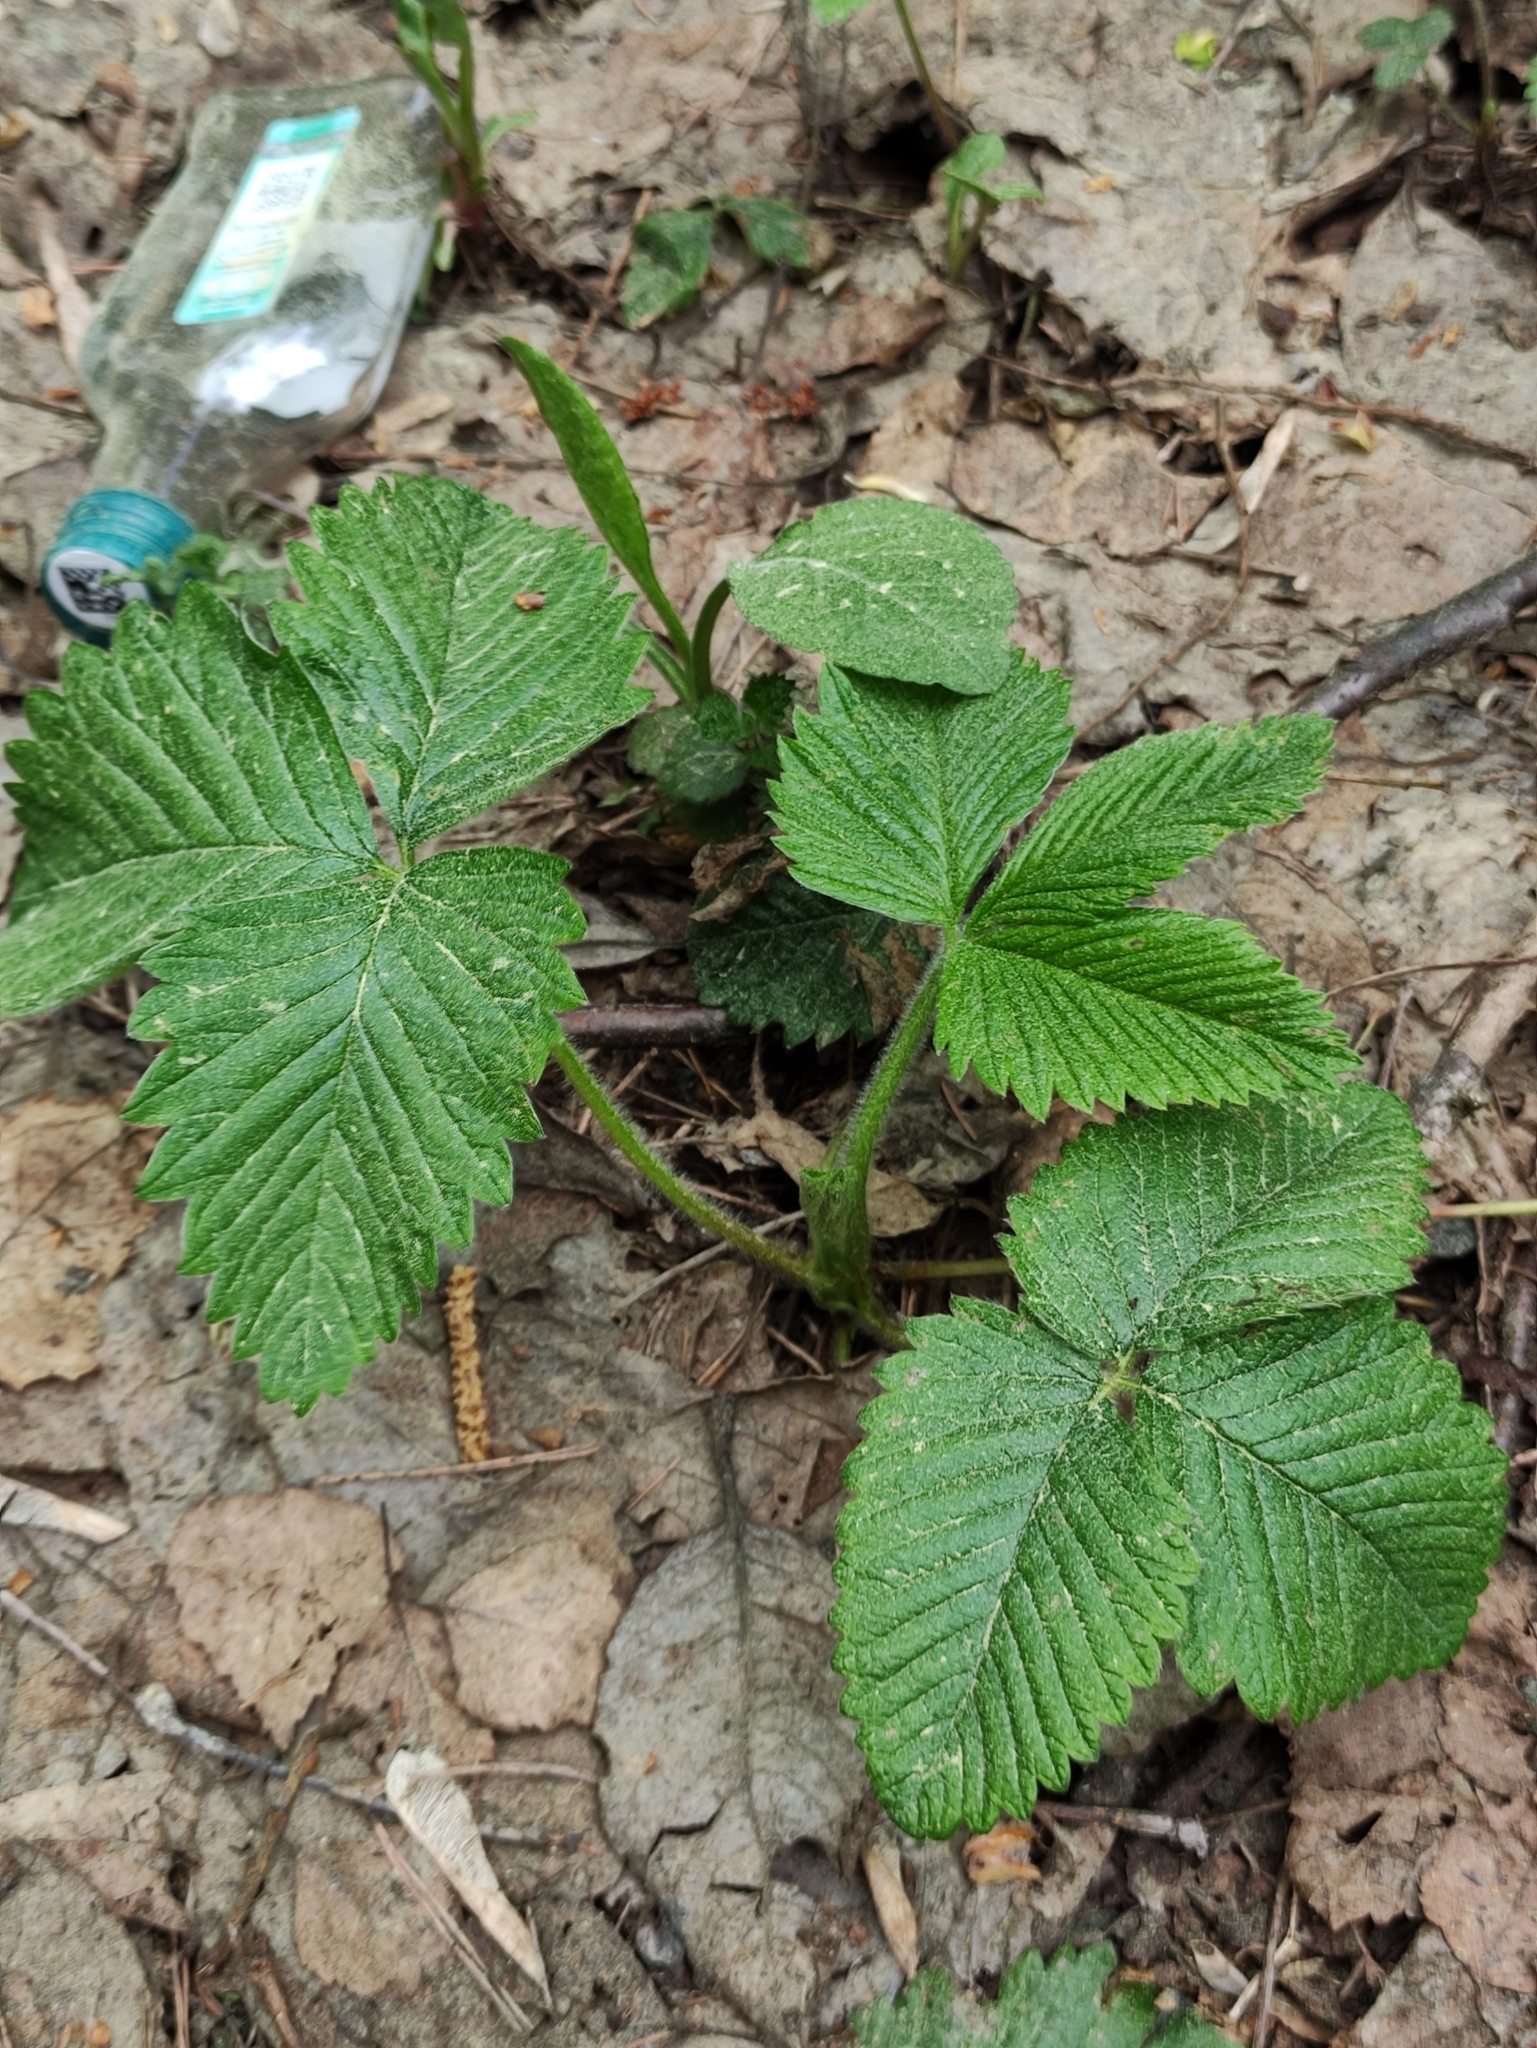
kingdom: Plantae
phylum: Tracheophyta
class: Magnoliopsida
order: Rosales
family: Rosaceae
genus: Fragaria
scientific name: Fragaria moschata
